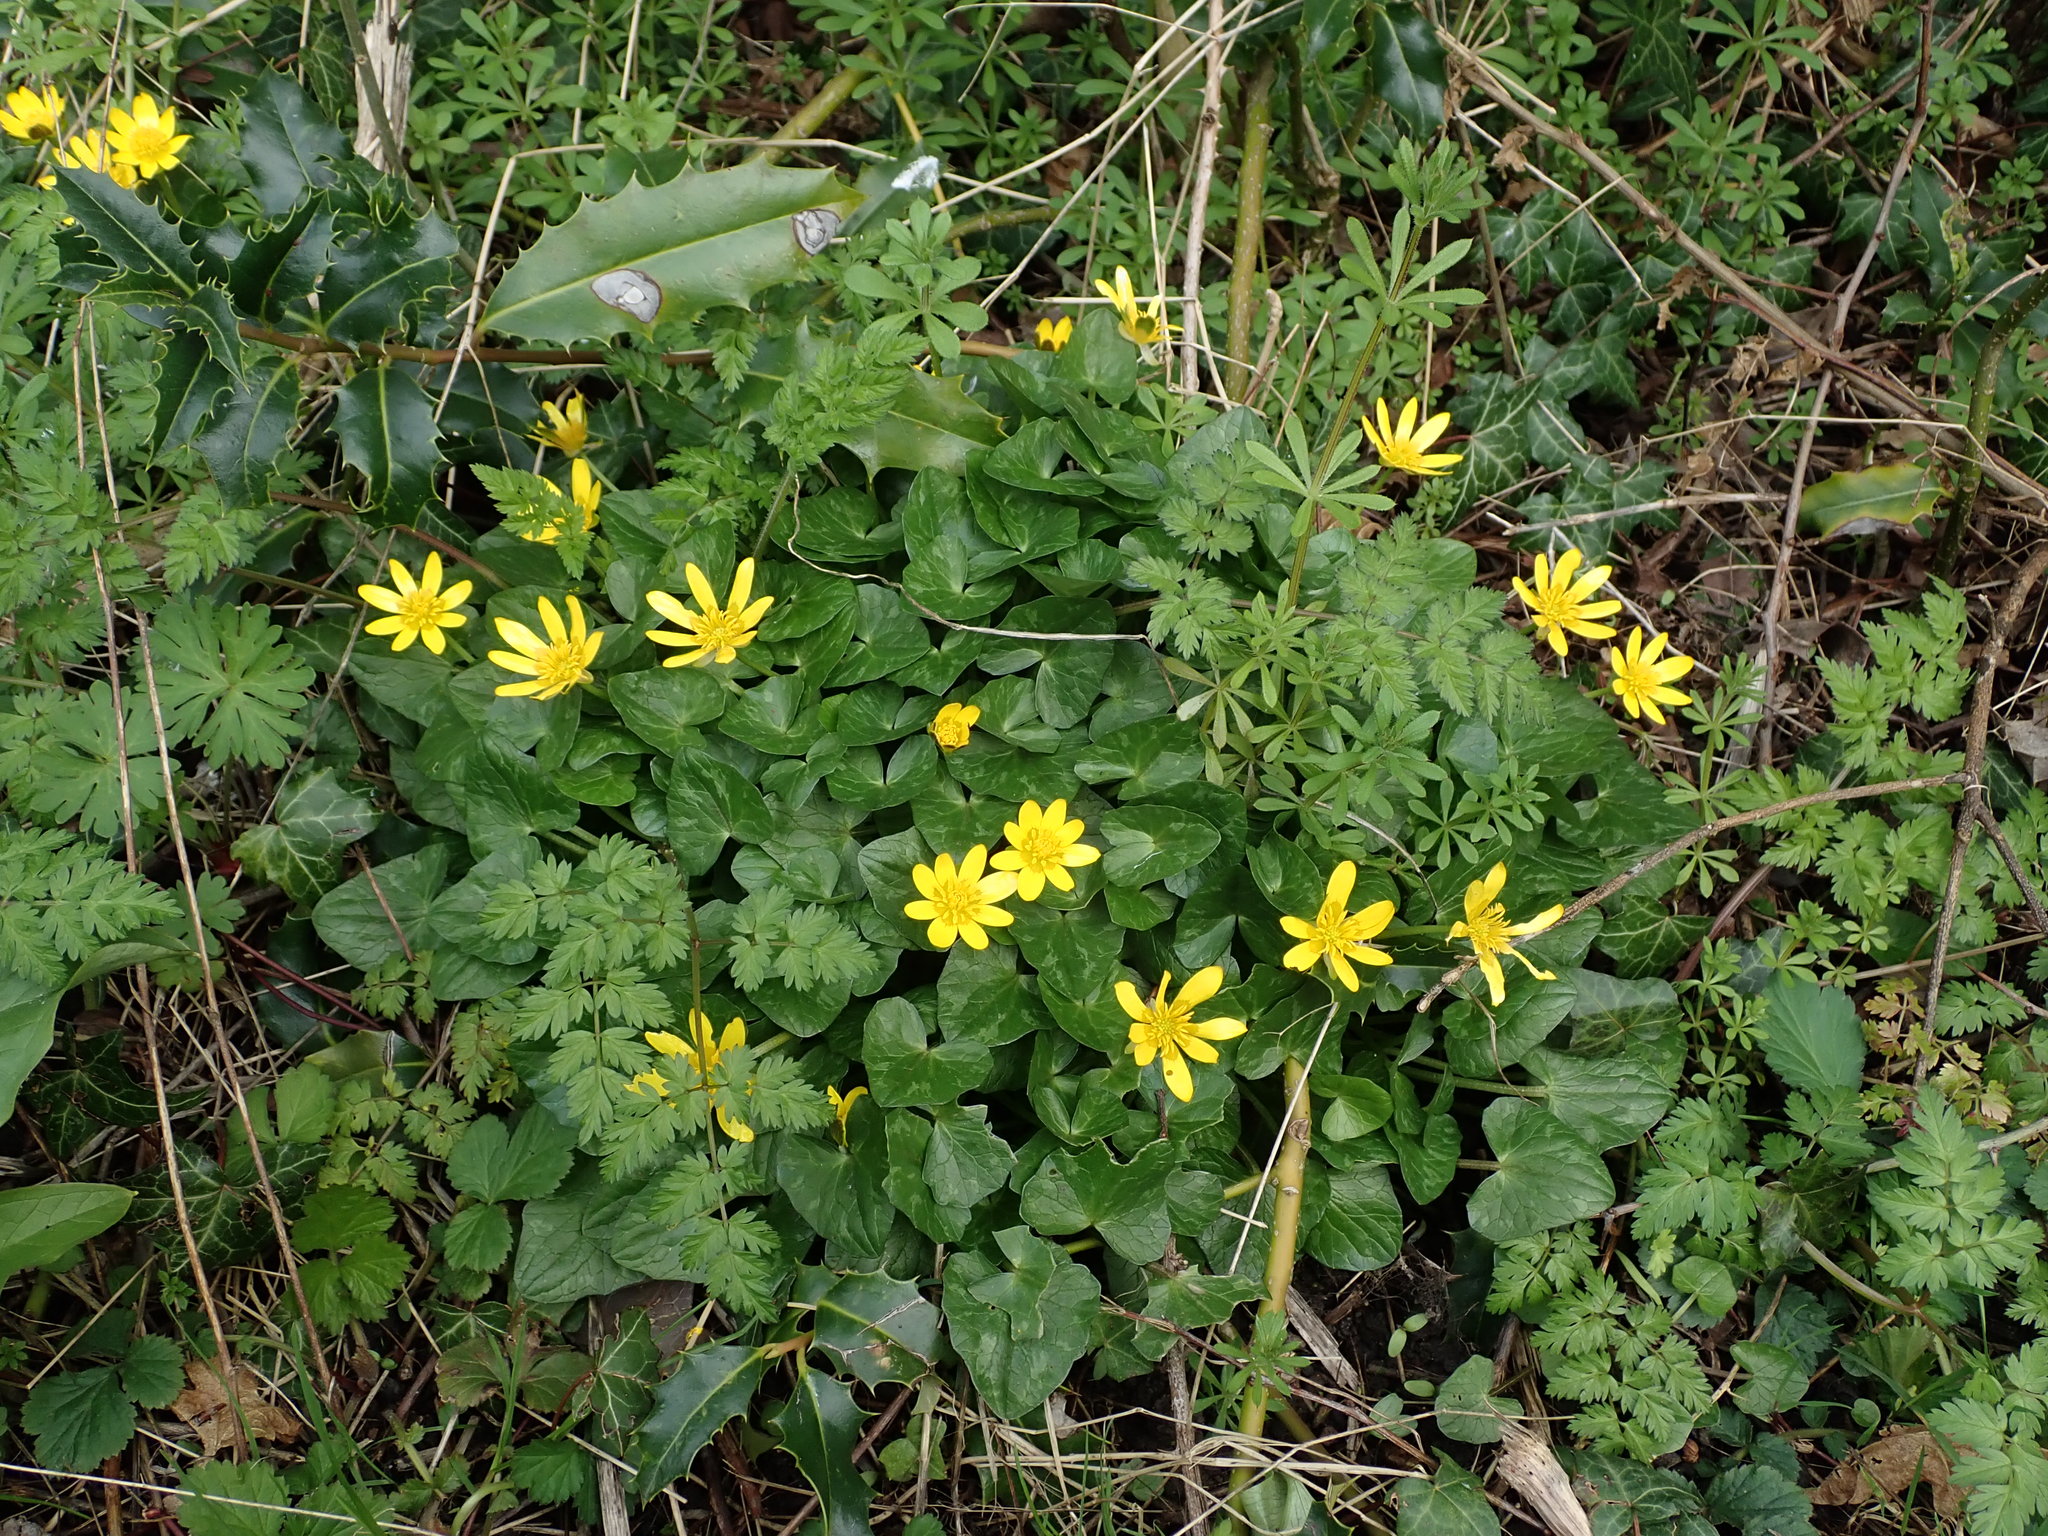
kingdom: Plantae
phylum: Tracheophyta
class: Magnoliopsida
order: Ranunculales
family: Ranunculaceae
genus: Ficaria
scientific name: Ficaria verna
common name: Lesser celandine
